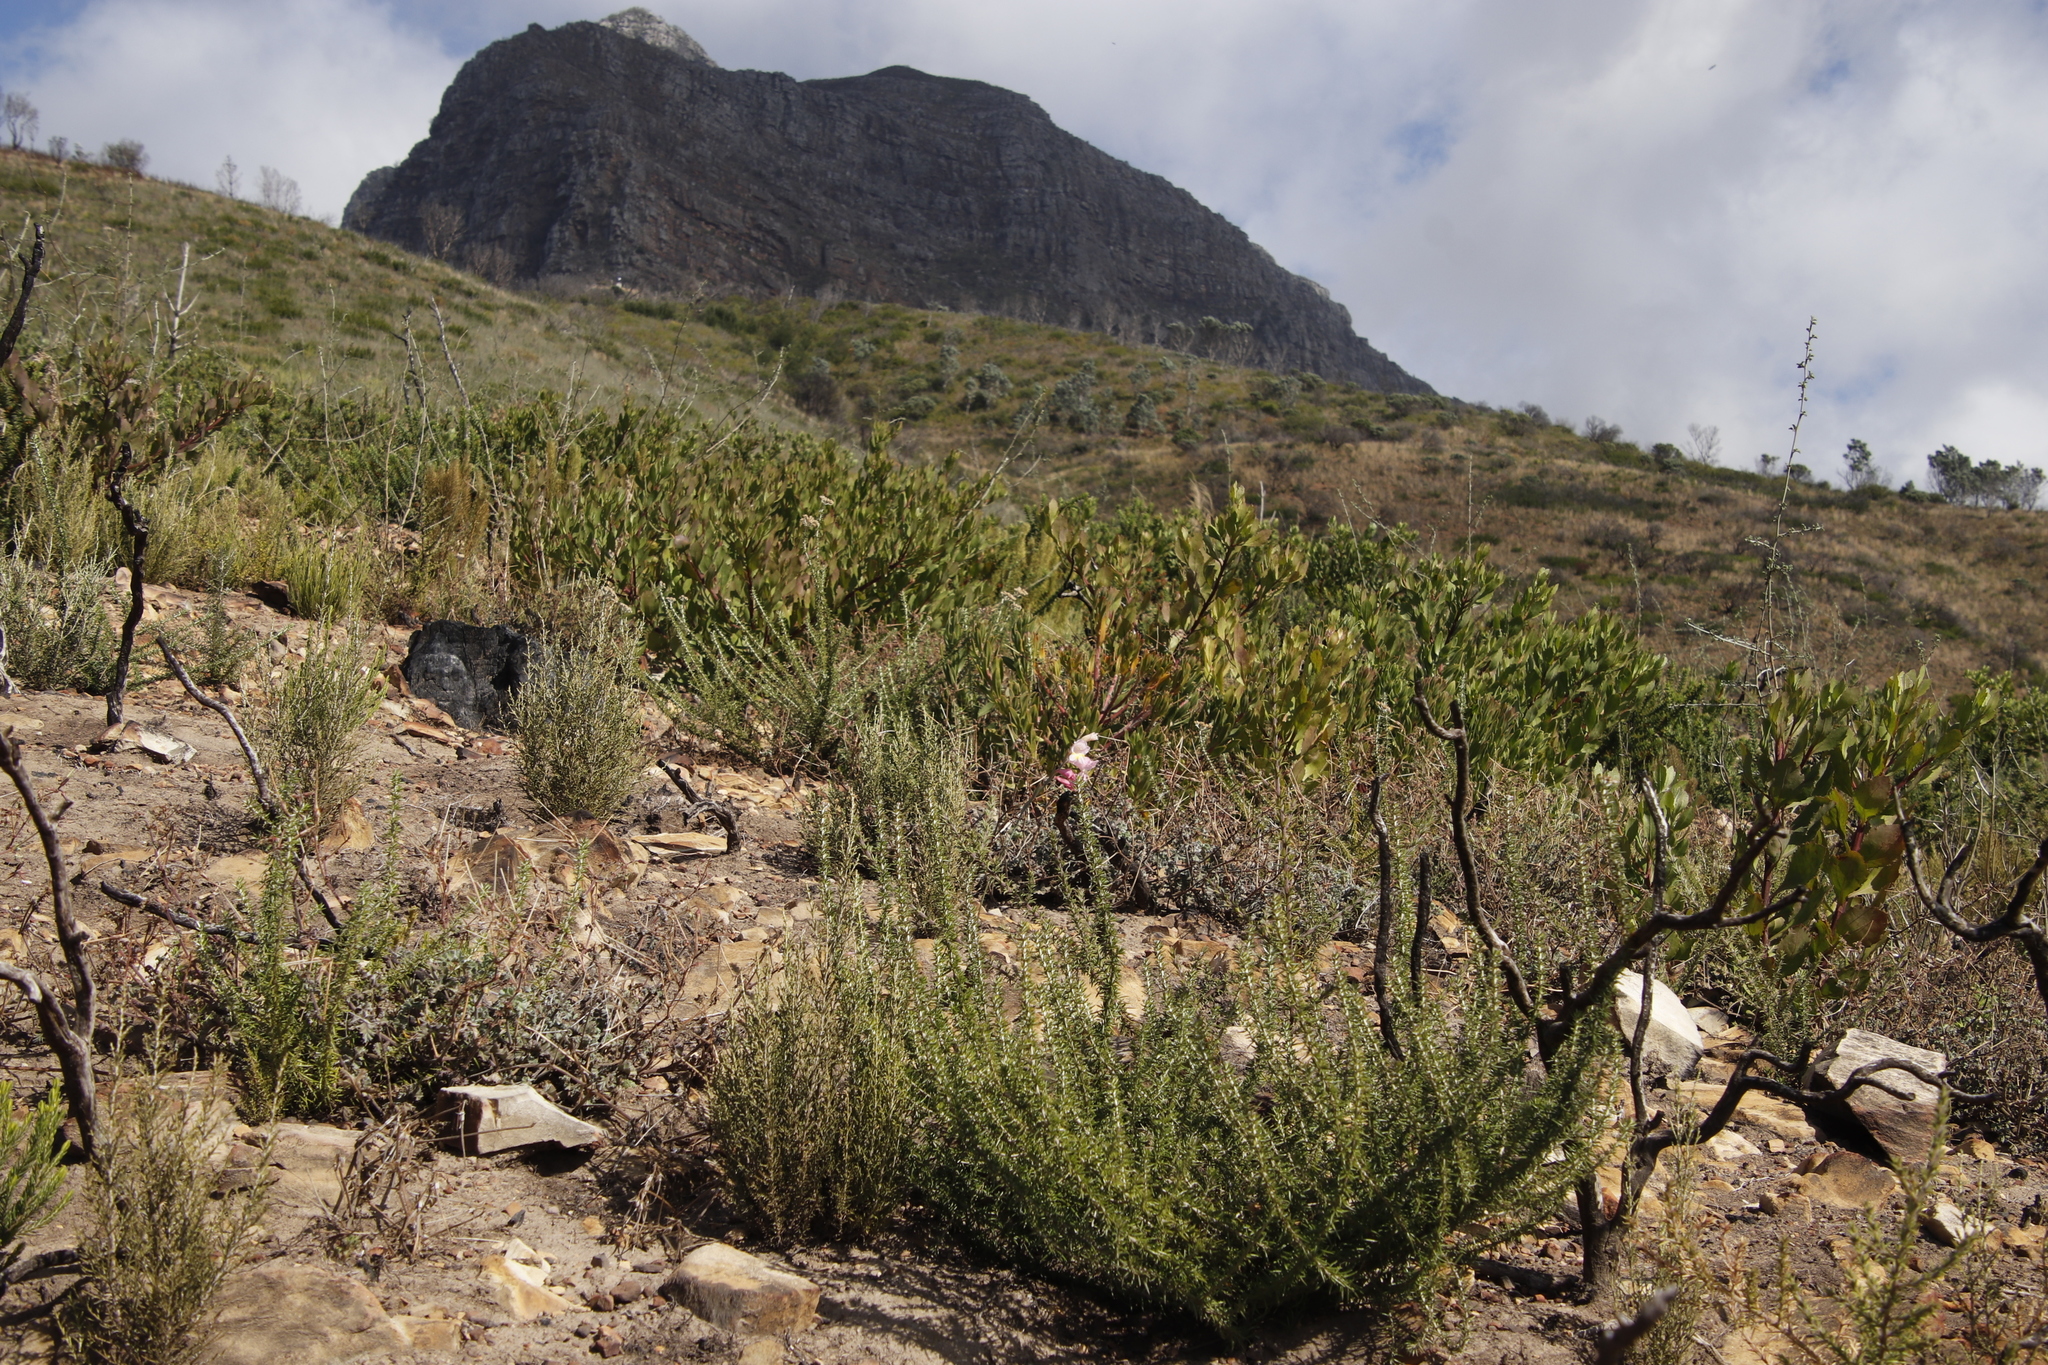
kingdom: Plantae
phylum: Tracheophyta
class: Liliopsida
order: Asparagales
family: Iridaceae
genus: Gladiolus
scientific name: Gladiolus brevifolius
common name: March pypie
